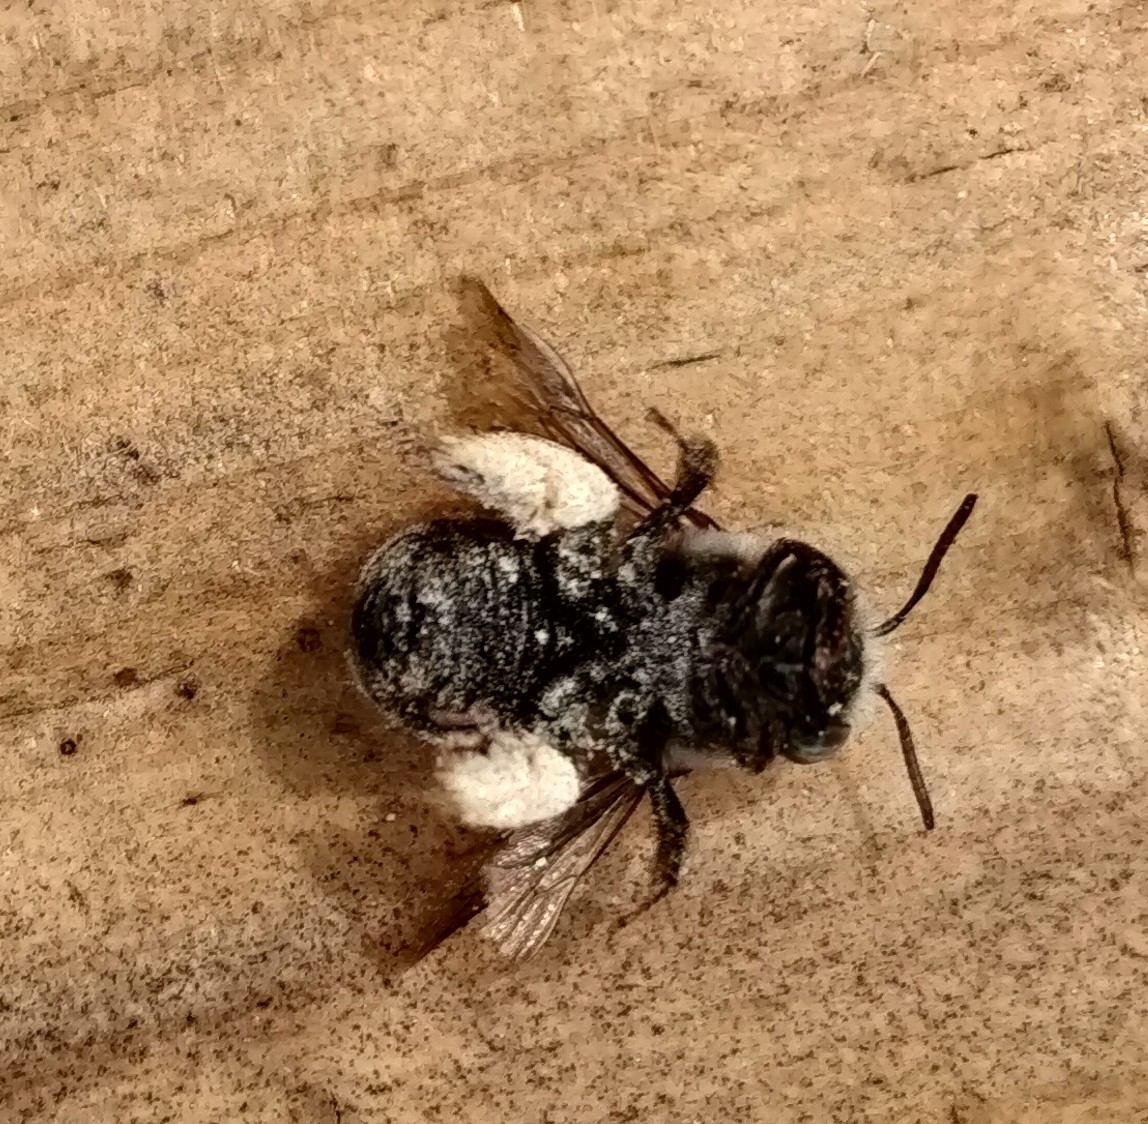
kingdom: Animalia
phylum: Arthropoda
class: Insecta
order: Hymenoptera
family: Apidae
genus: Florilegus
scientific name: Florilegus condignus
